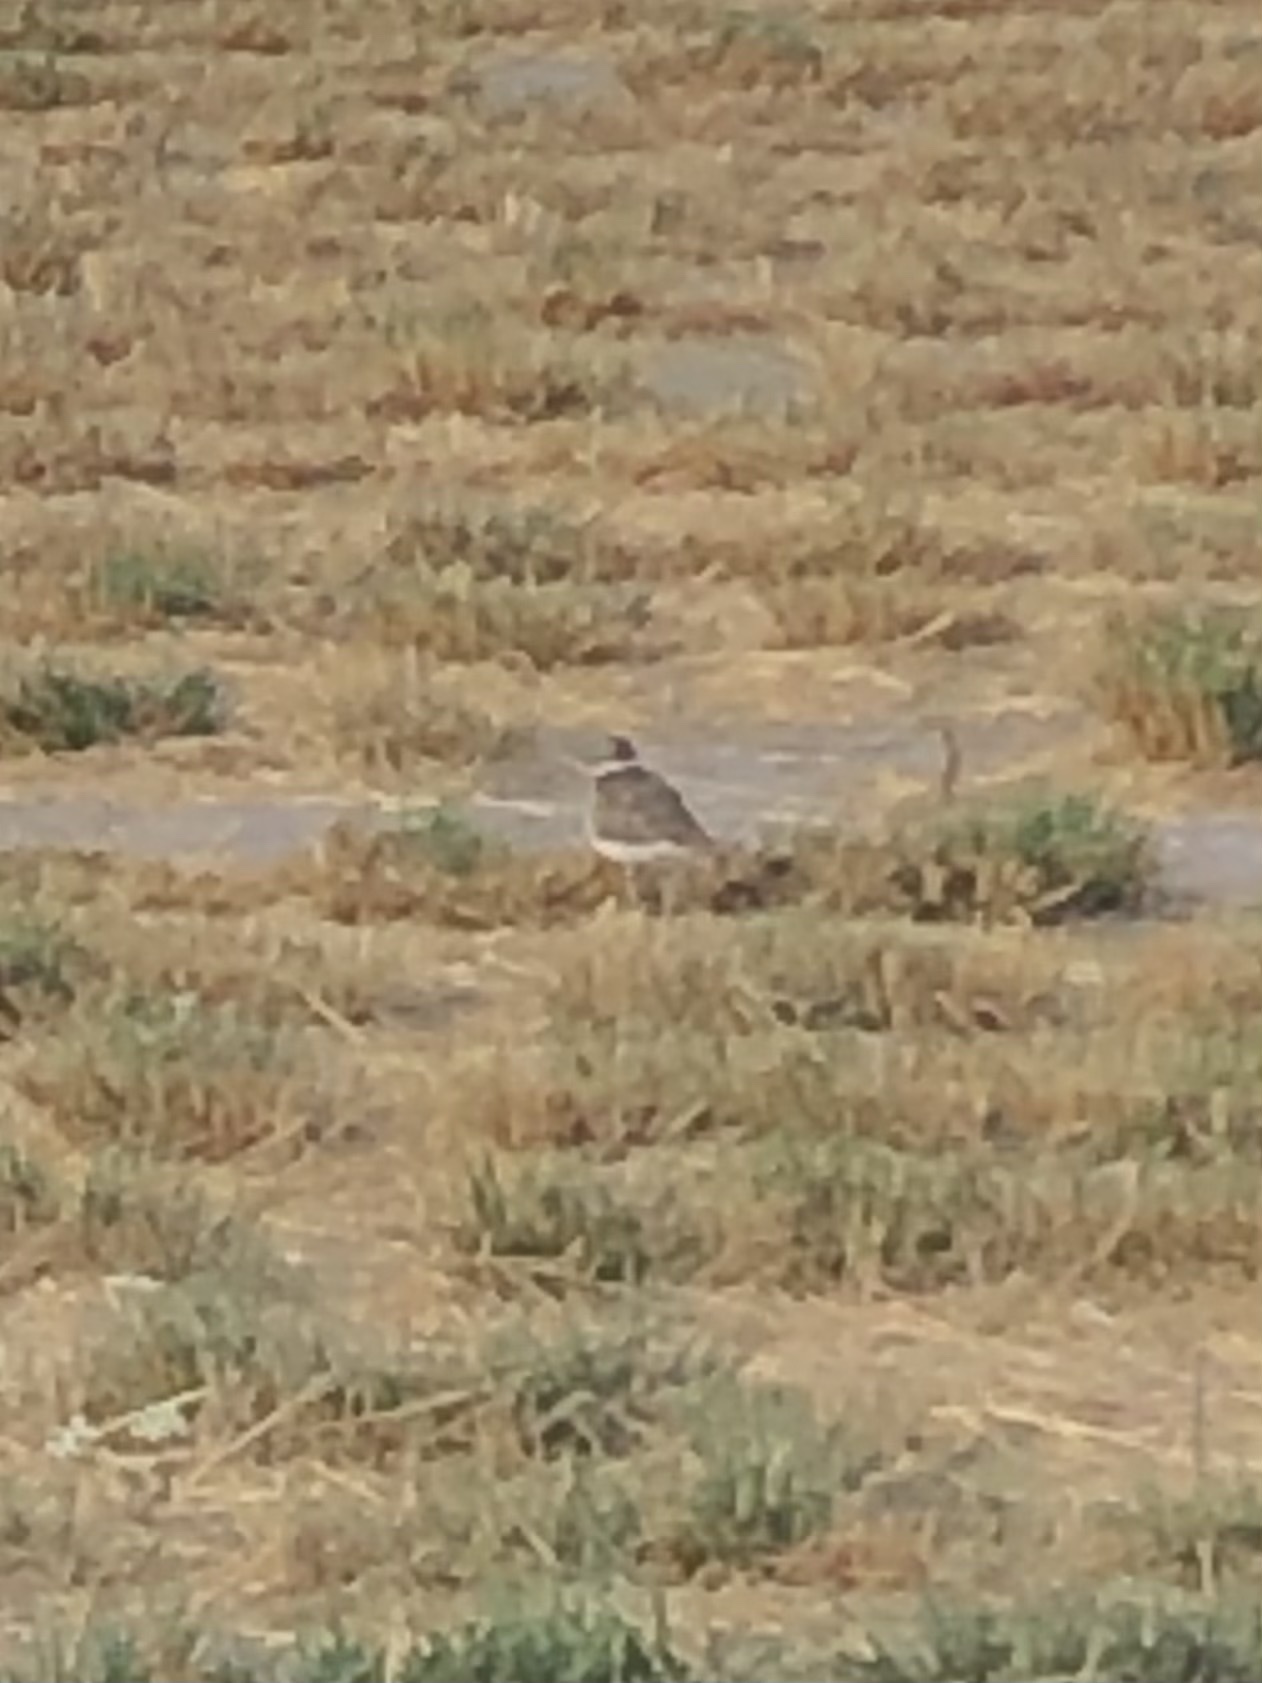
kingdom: Animalia
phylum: Chordata
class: Aves
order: Charadriiformes
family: Charadriidae
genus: Charadrius
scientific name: Charadrius vociferus
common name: Killdeer
